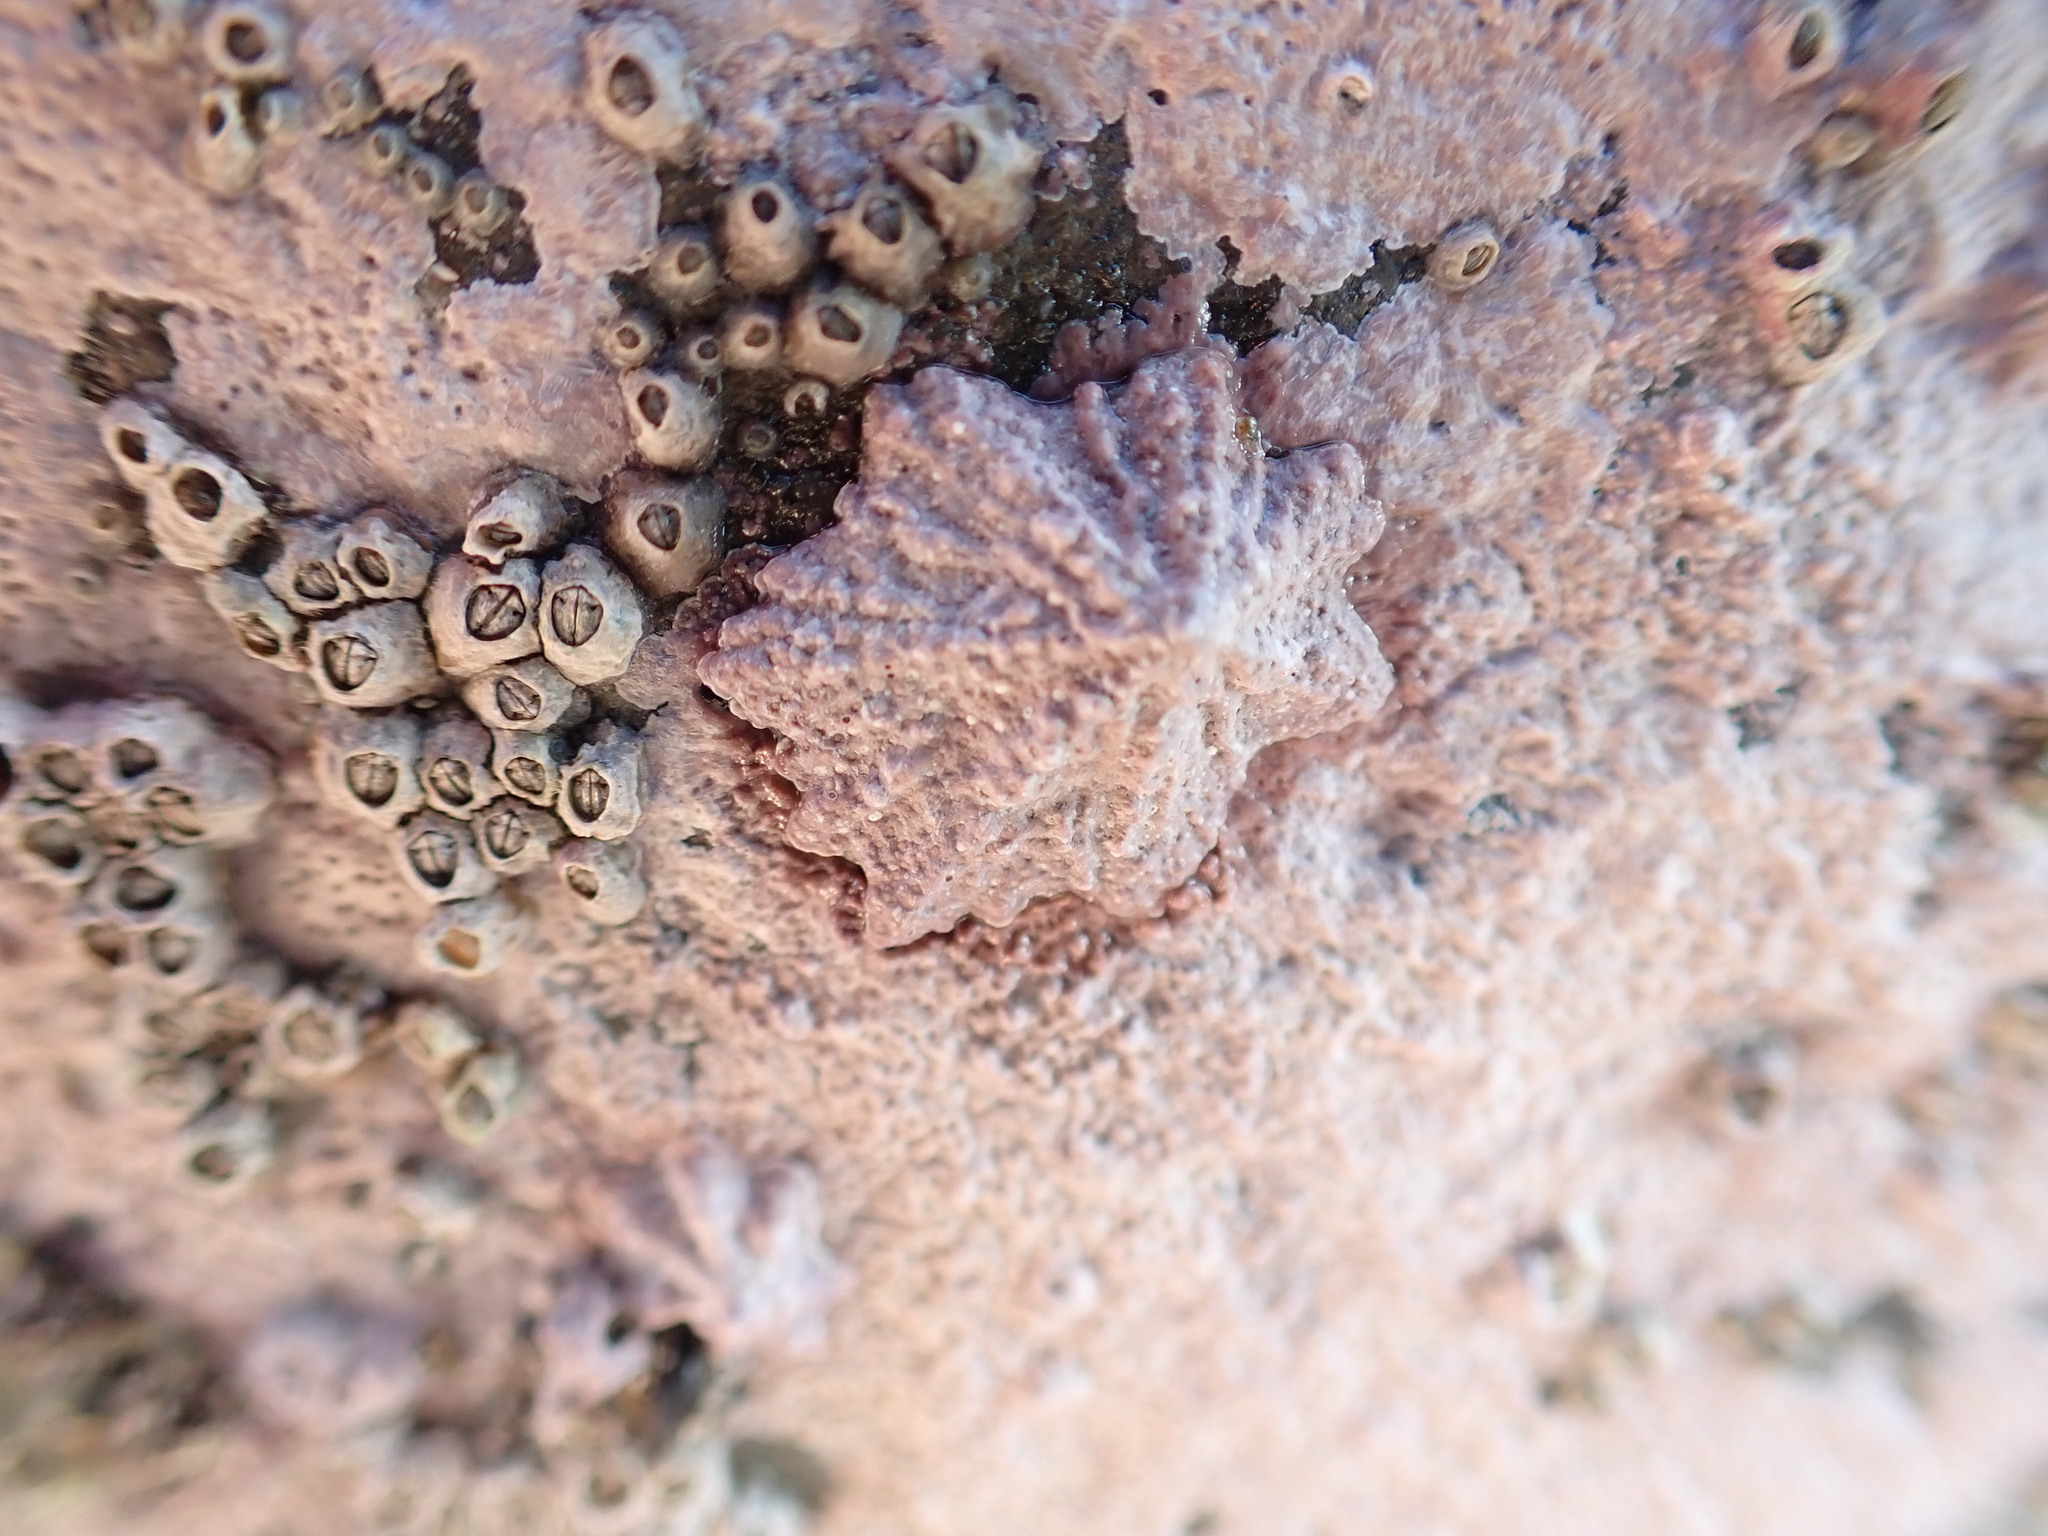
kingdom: Animalia
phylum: Mollusca
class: Gastropoda
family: Lottiidae
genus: Patelloida
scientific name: Patelloida corticata
